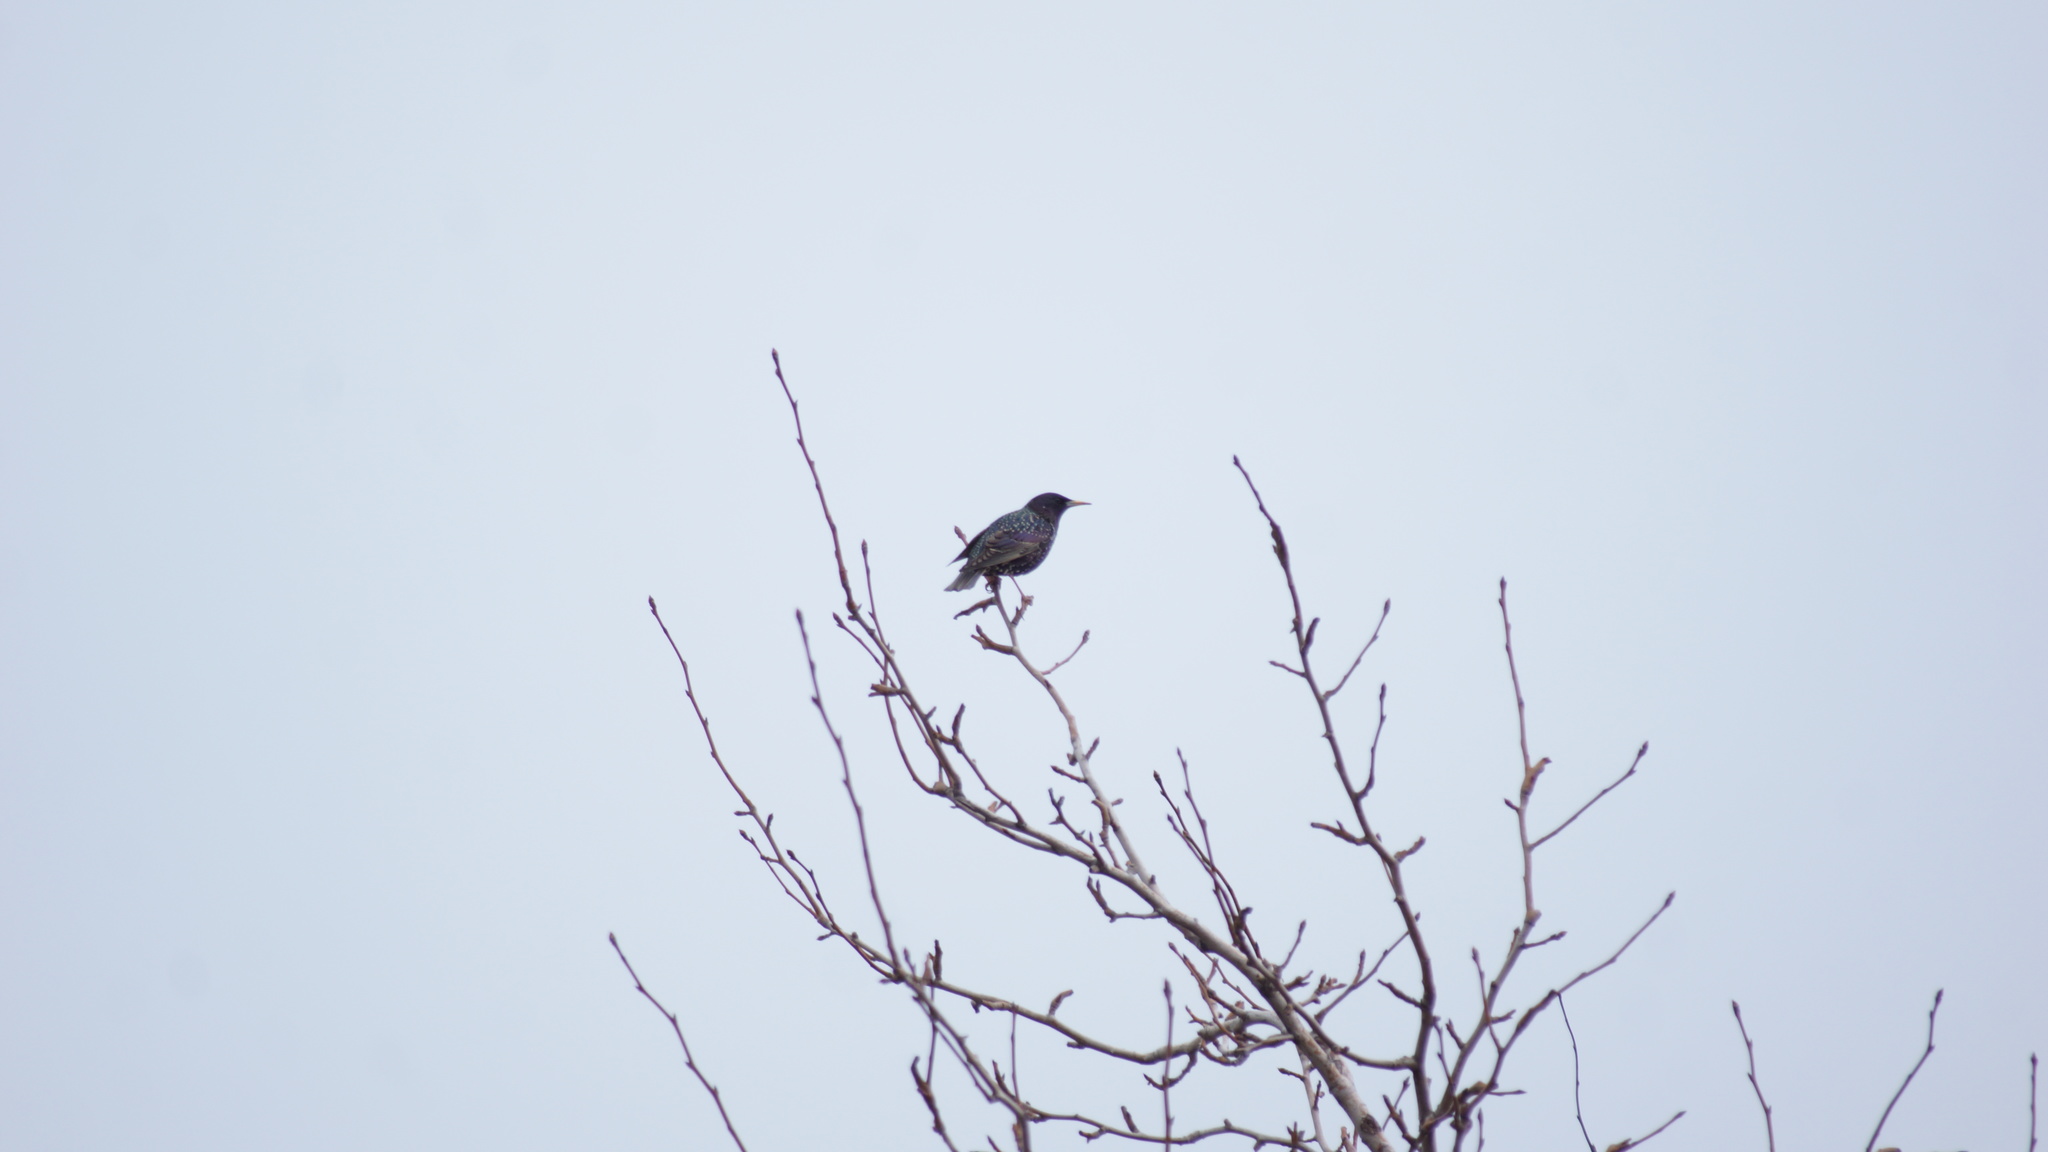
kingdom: Animalia
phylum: Chordata
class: Aves
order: Passeriformes
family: Sturnidae
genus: Sturnus
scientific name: Sturnus vulgaris
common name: Common starling
